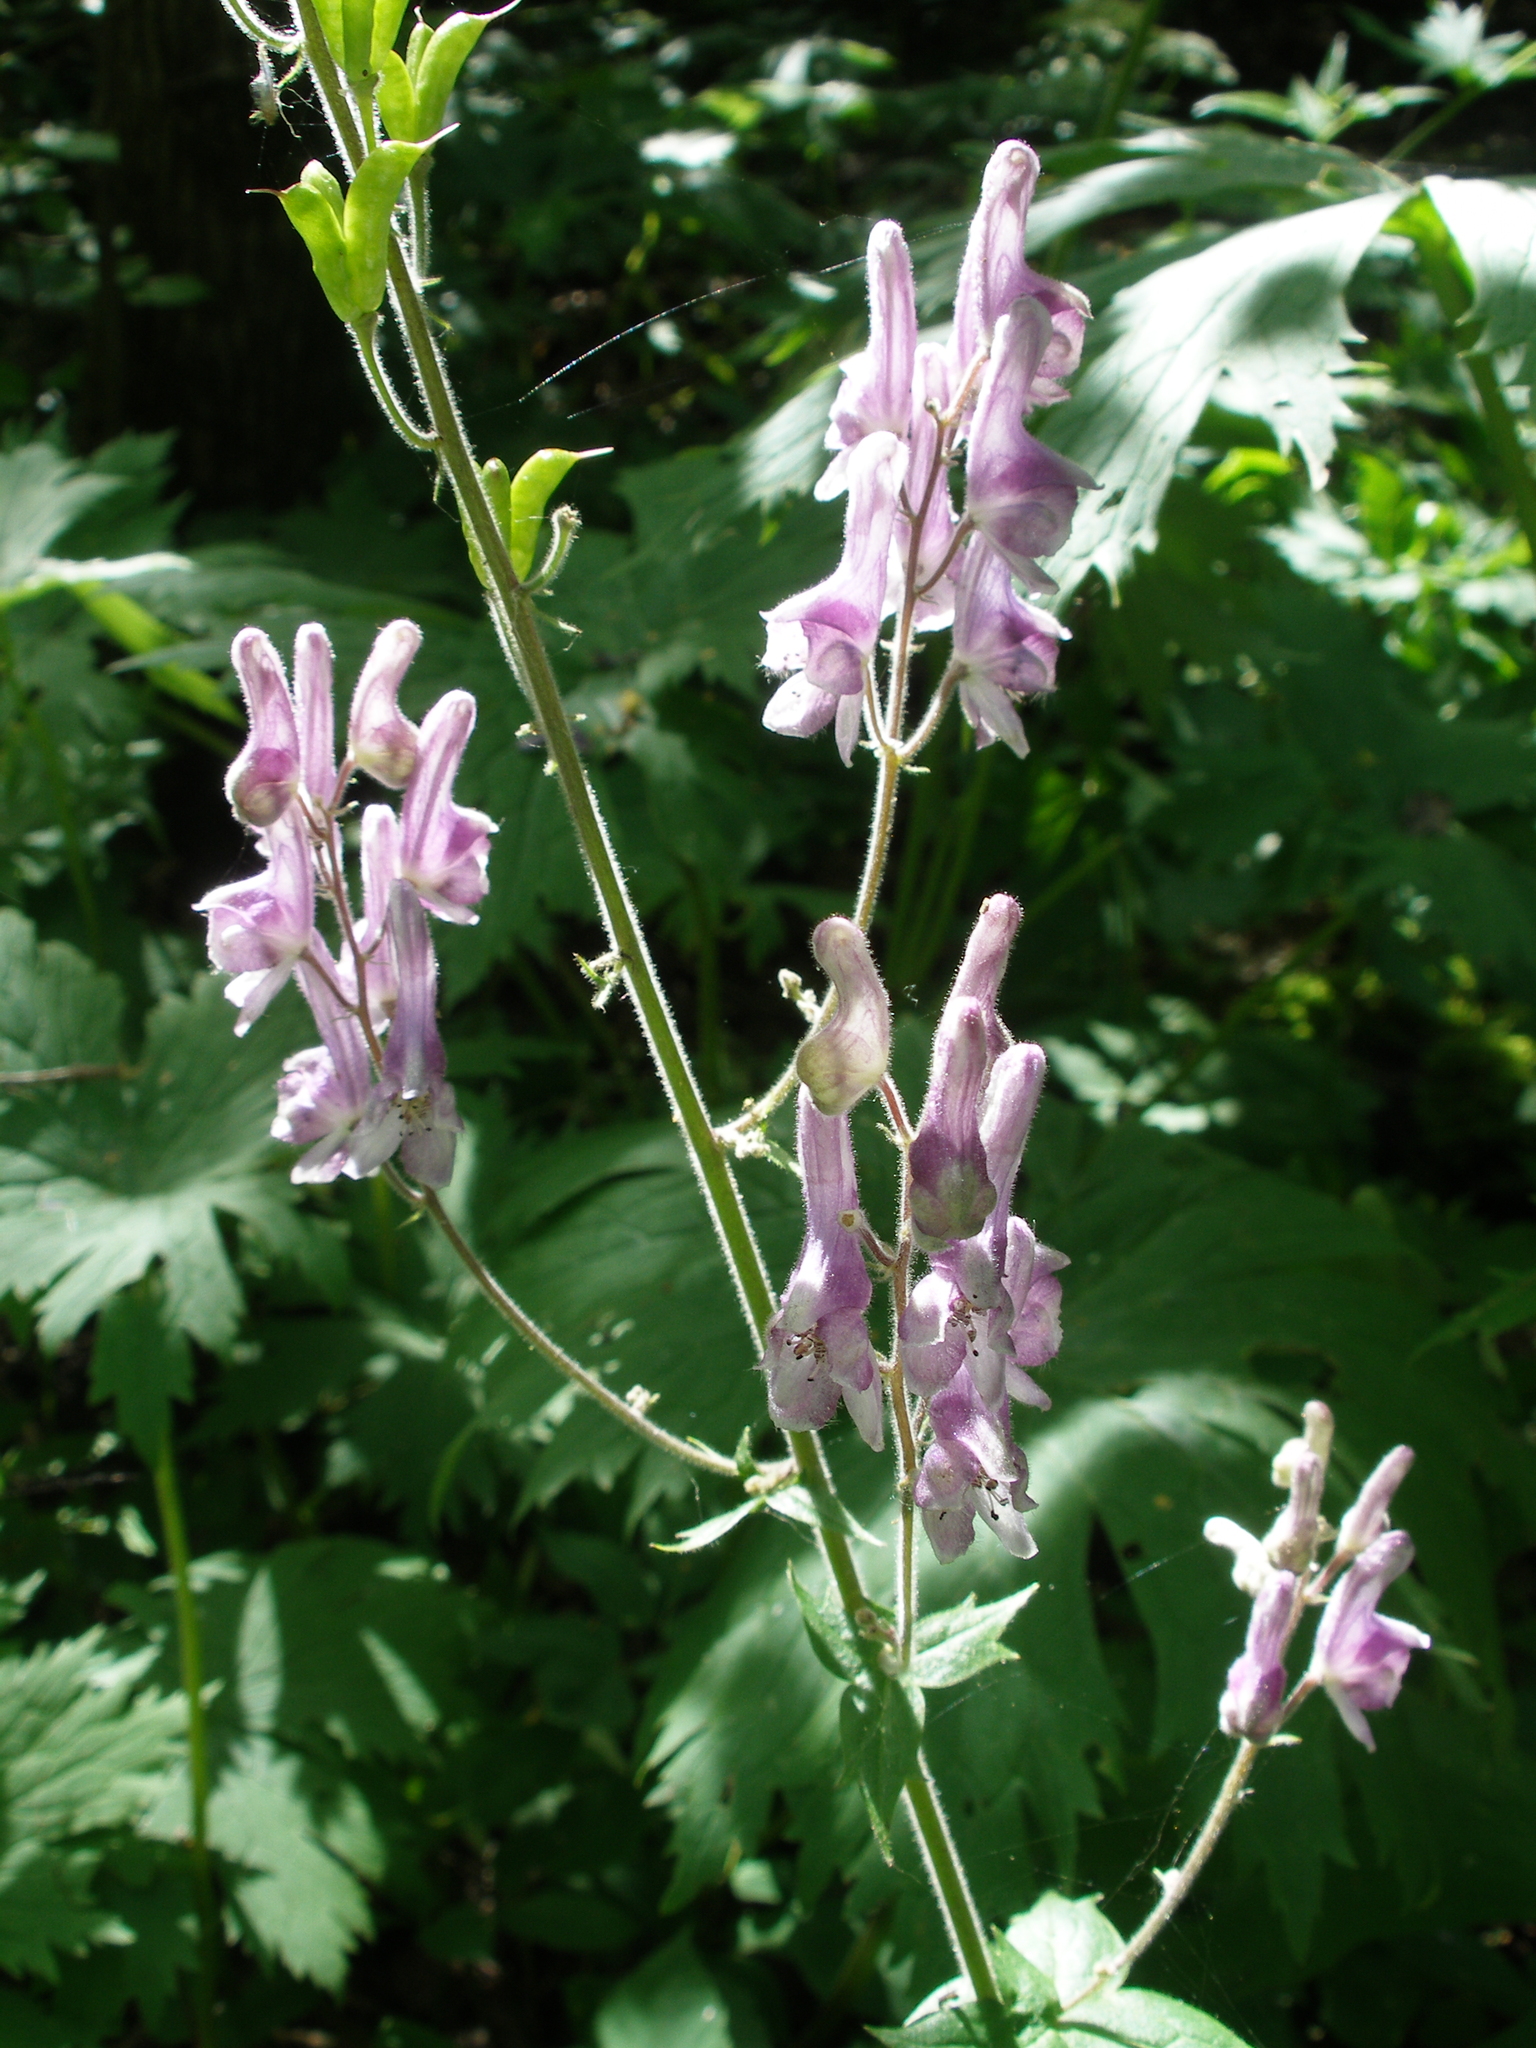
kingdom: Plantae
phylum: Tracheophyta
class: Magnoliopsida
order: Ranunculales
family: Ranunculaceae
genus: Aconitum
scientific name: Aconitum septentrionale
